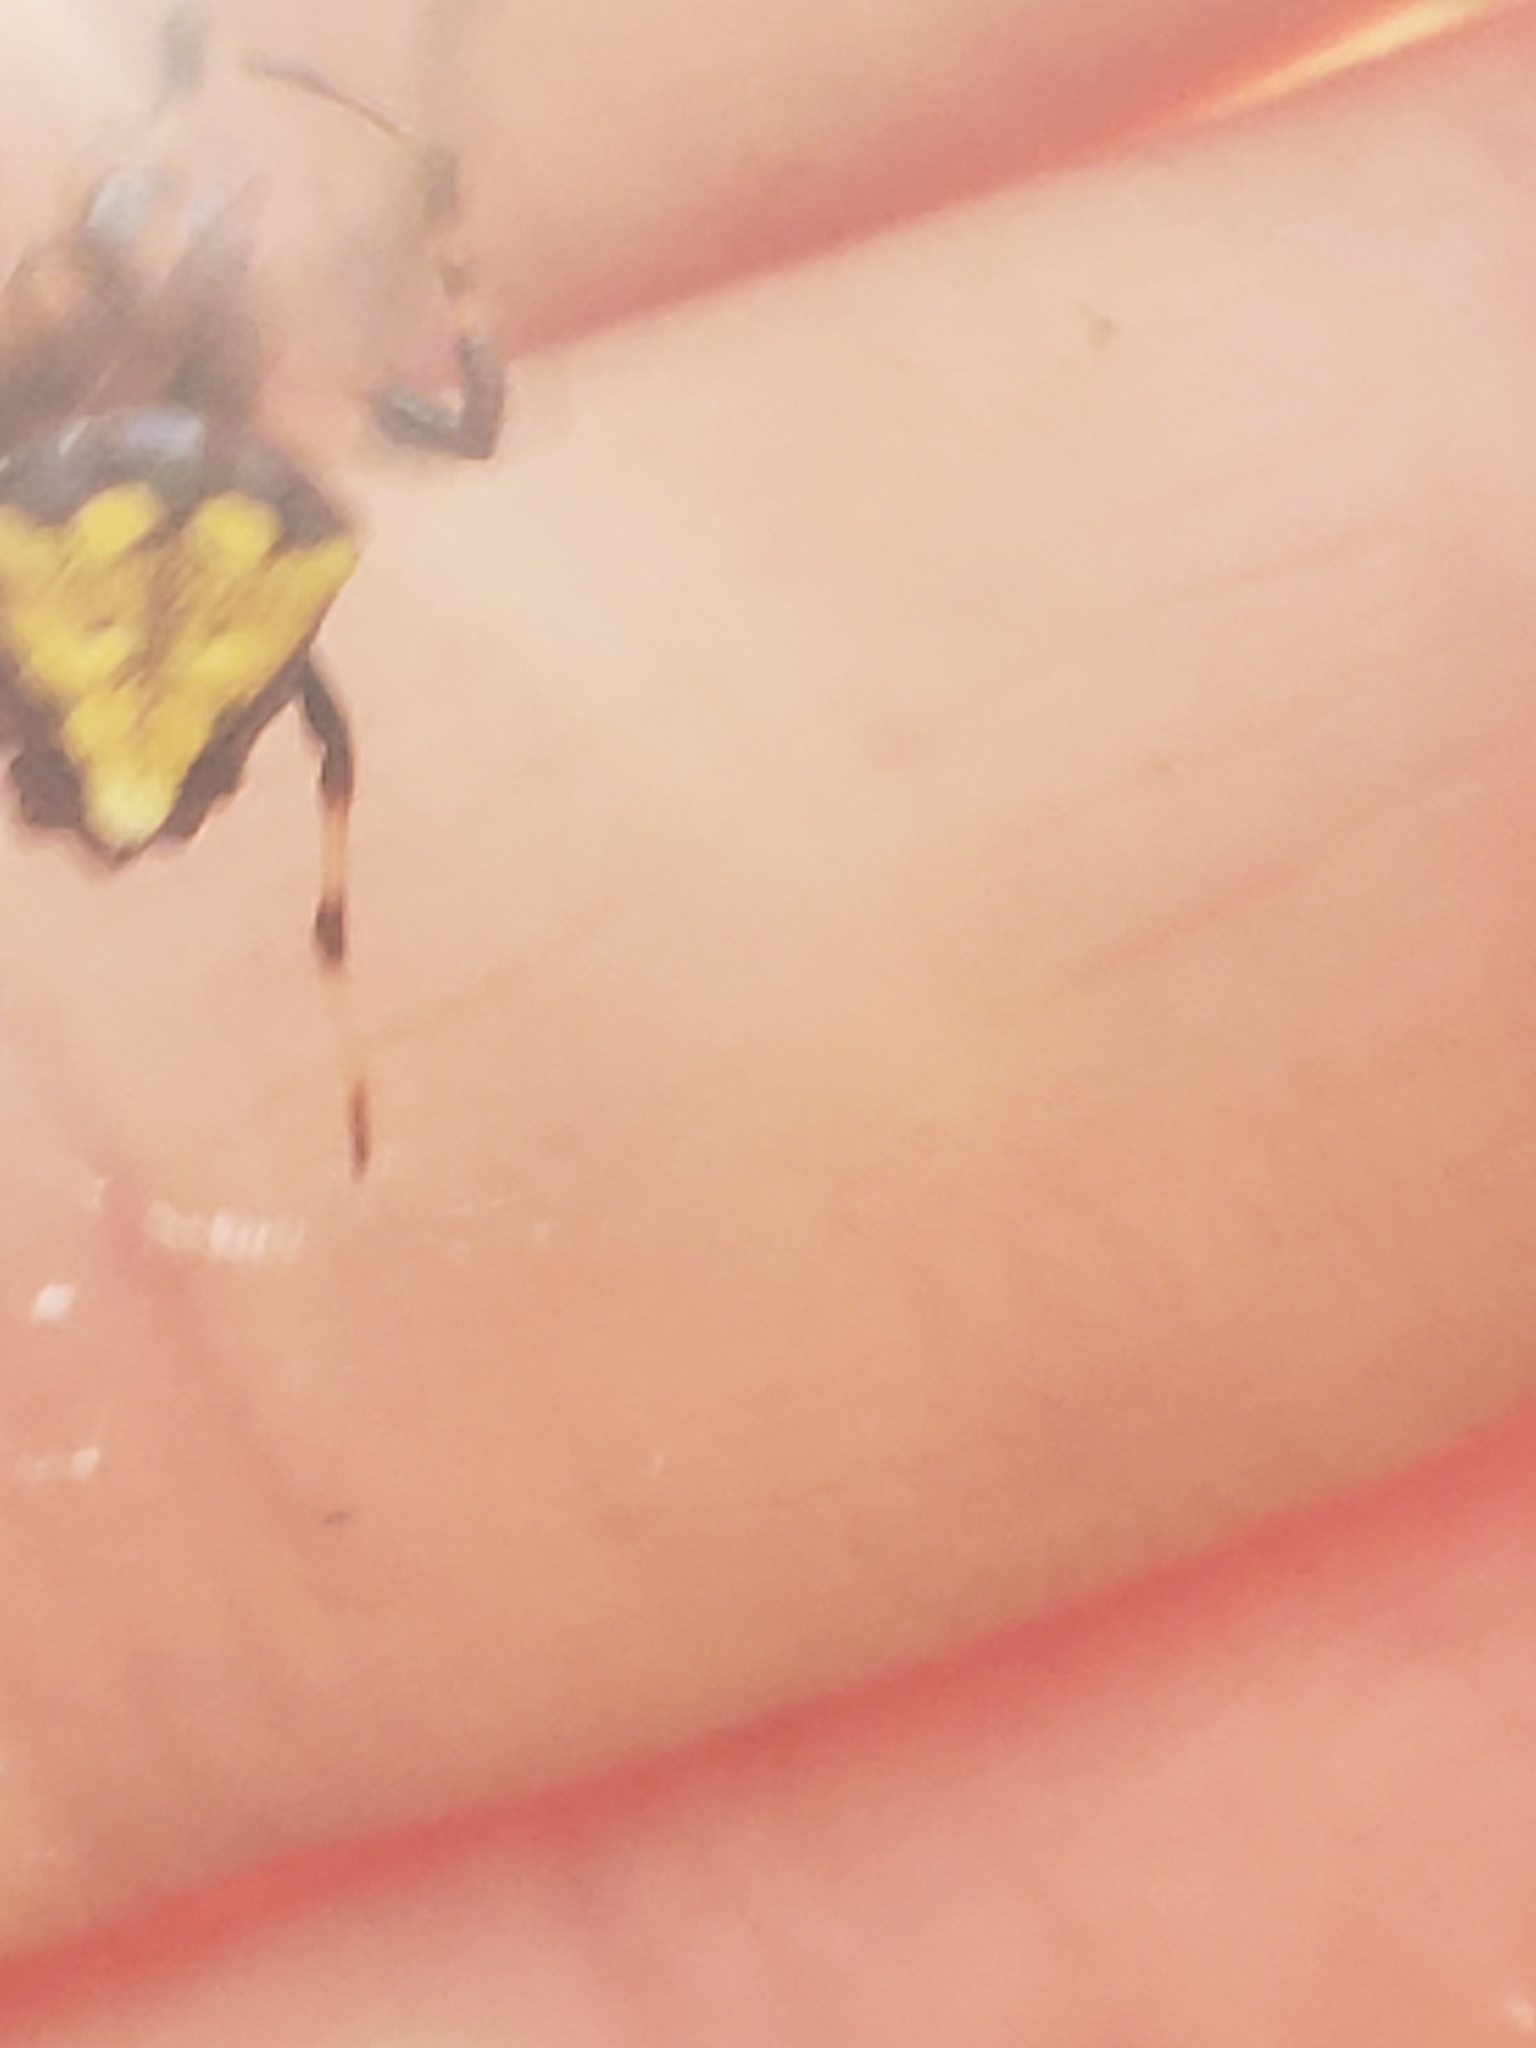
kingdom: Animalia
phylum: Arthropoda
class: Arachnida
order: Araneae
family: Araneidae
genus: Verrucosa
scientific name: Verrucosa arenata
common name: Orb weavers
